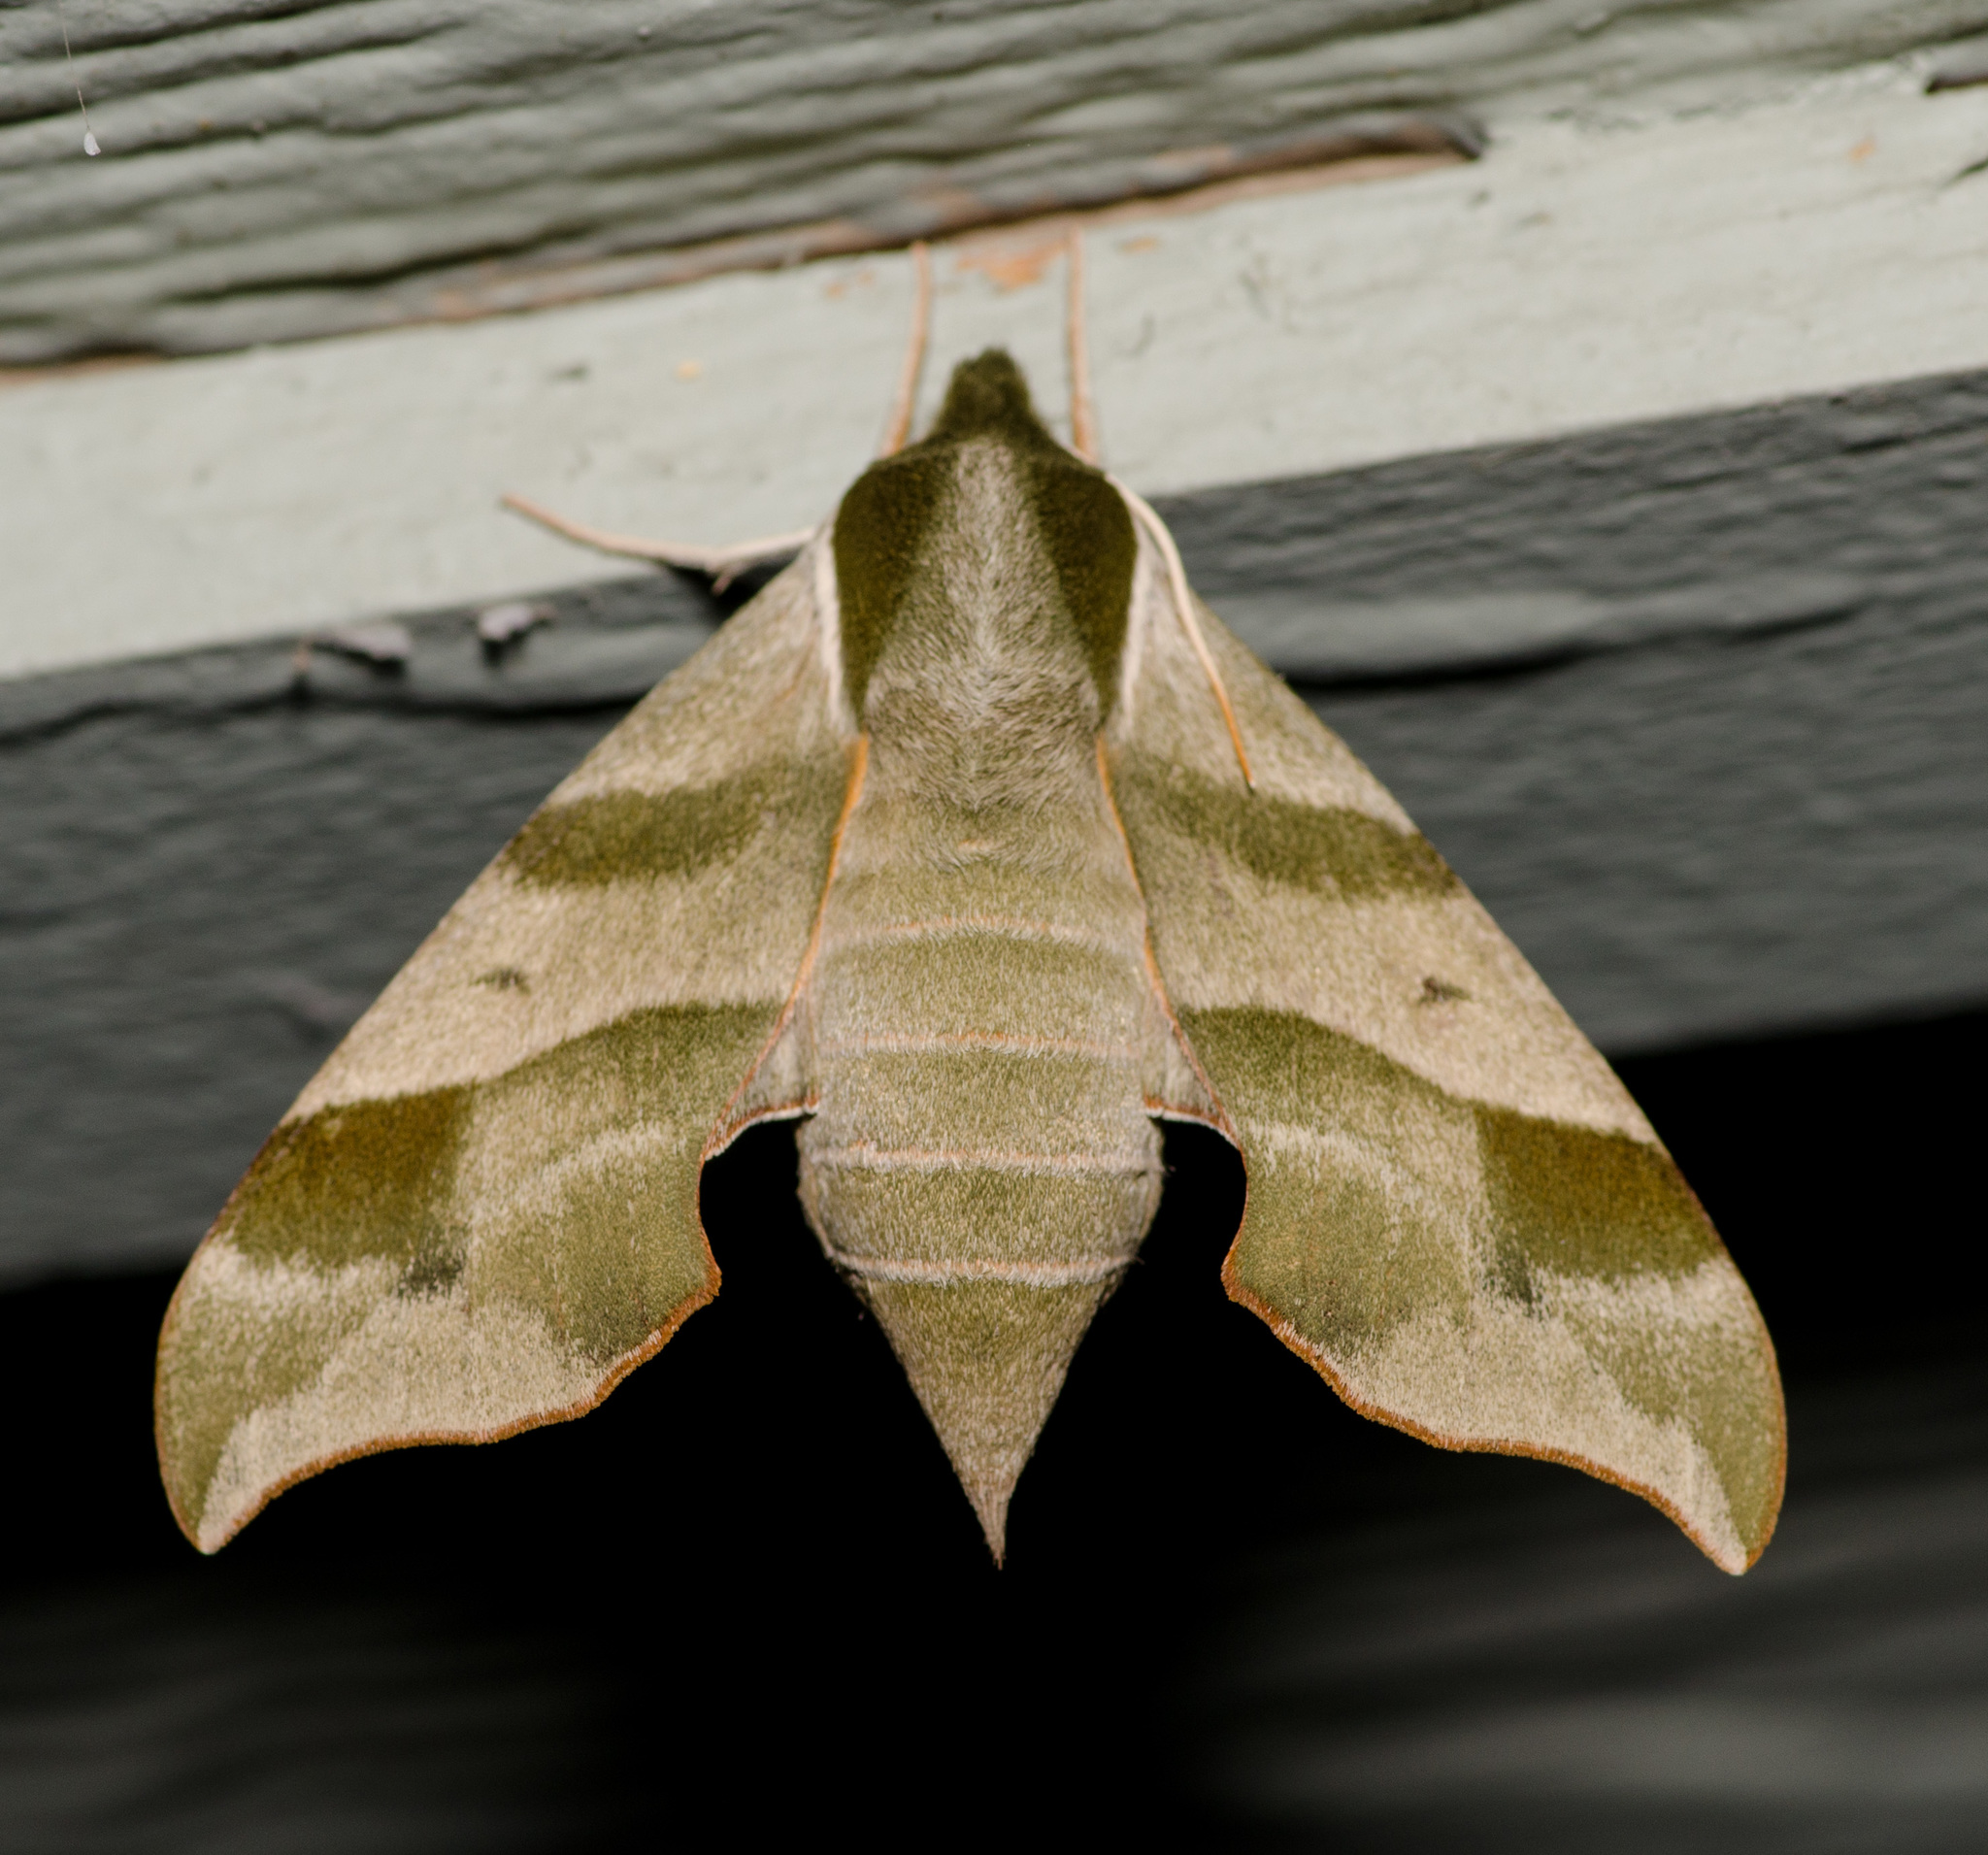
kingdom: Animalia
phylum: Arthropoda
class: Insecta
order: Lepidoptera
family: Sphingidae
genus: Darapsa
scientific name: Darapsa myron
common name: Hog sphinx
